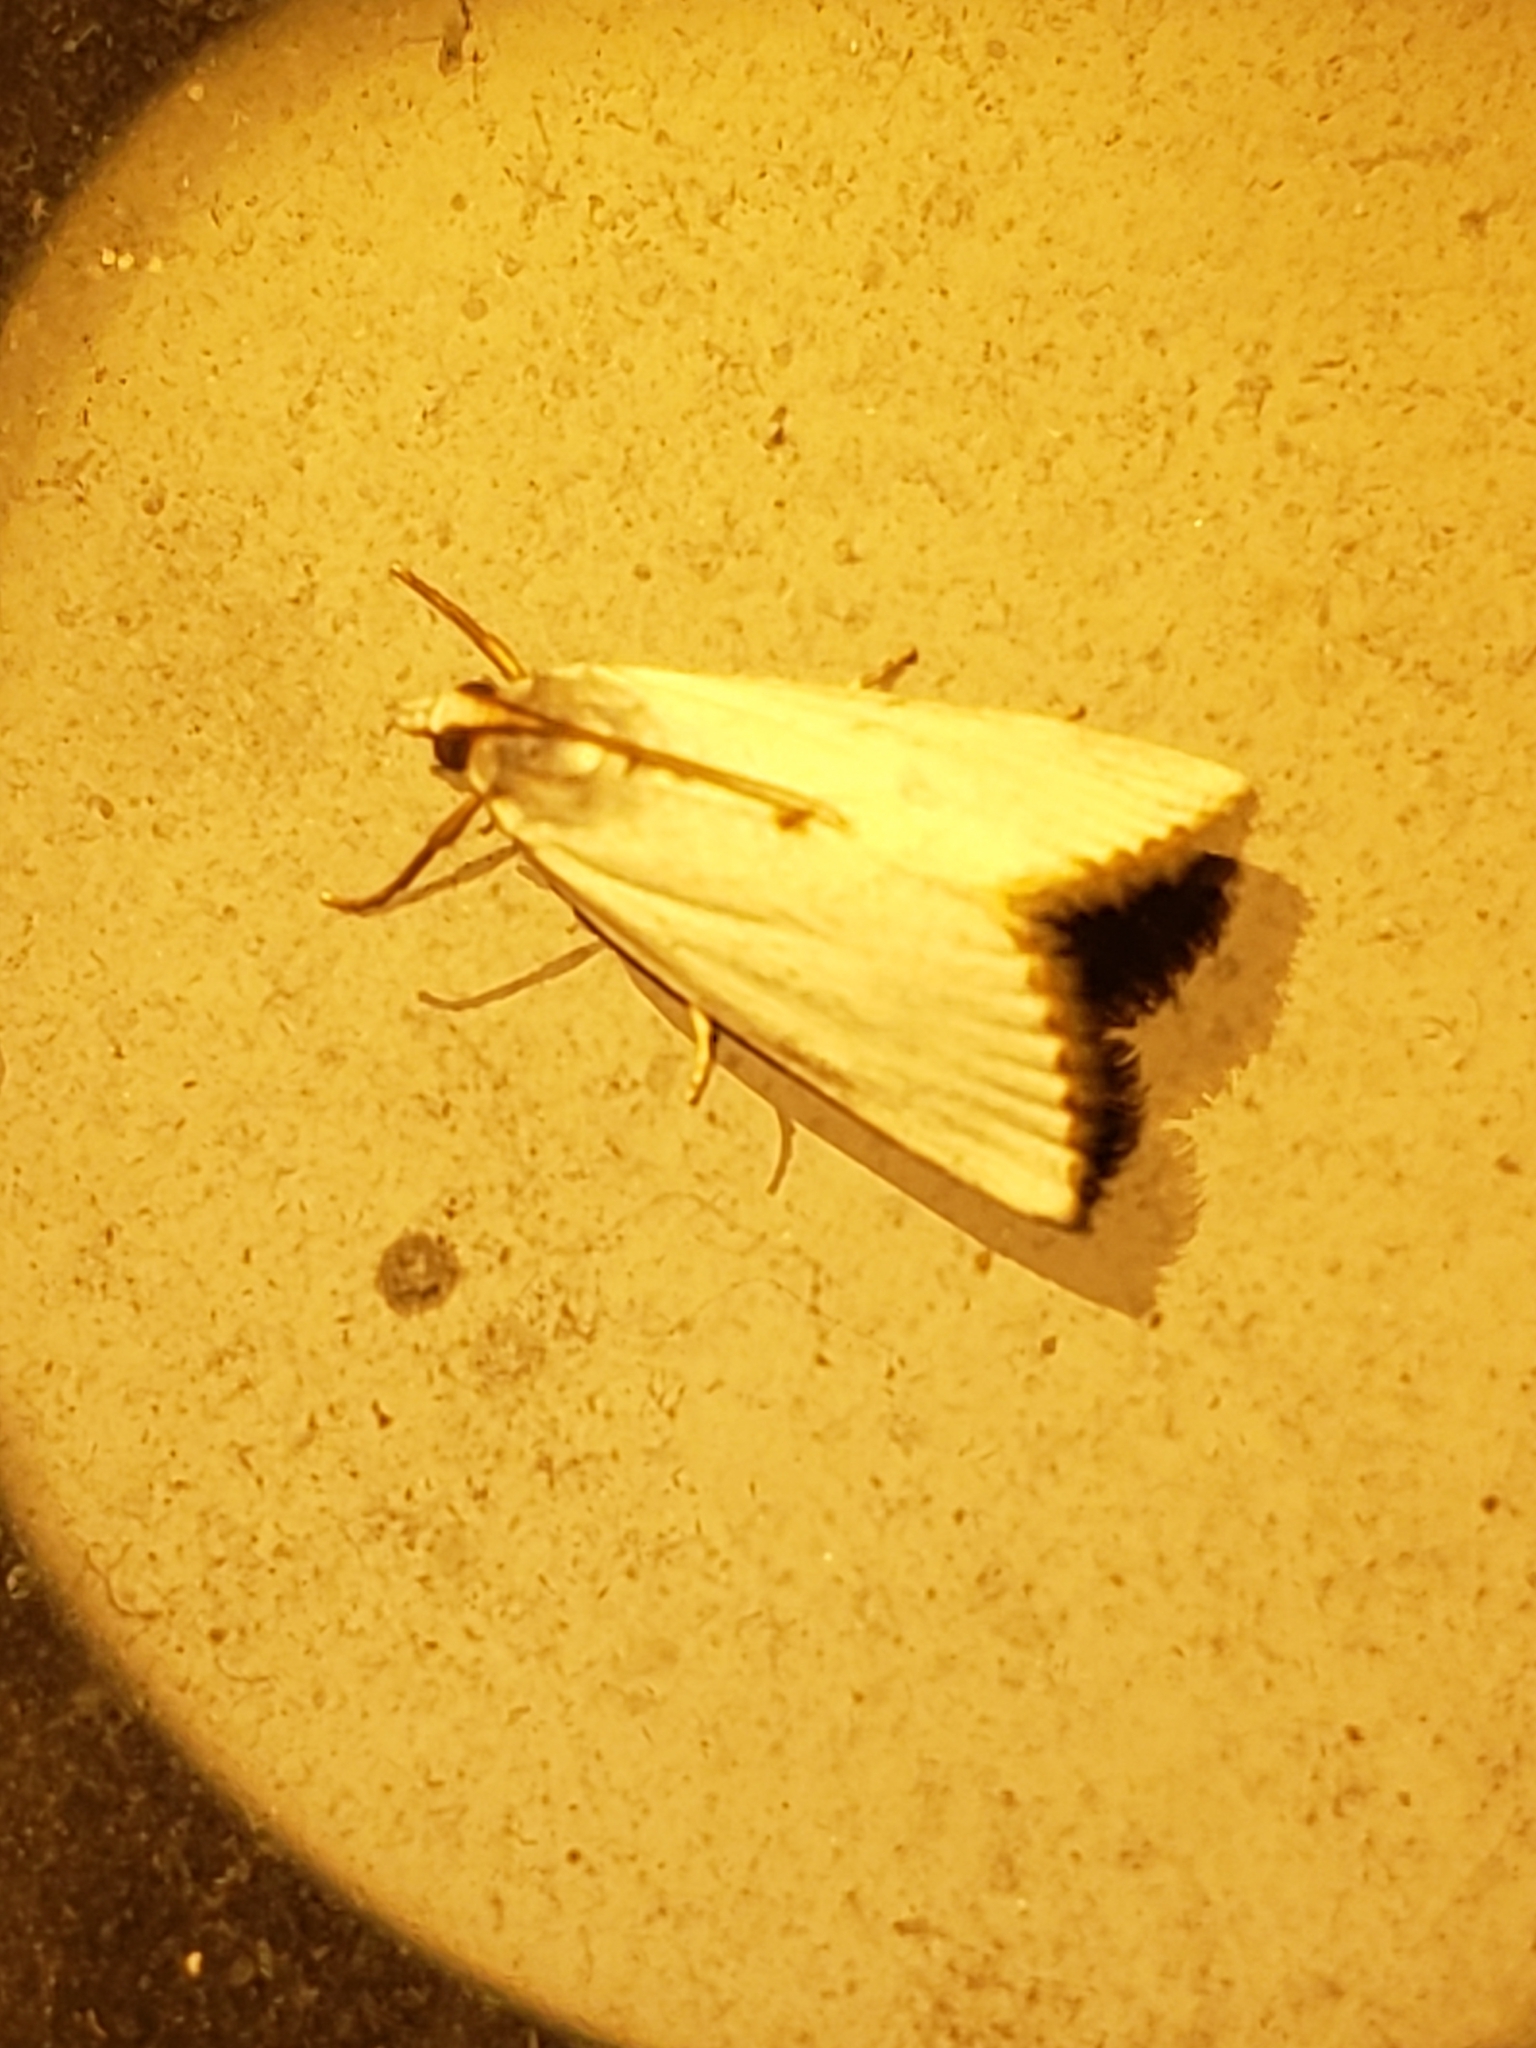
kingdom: Animalia
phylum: Arthropoda
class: Insecta
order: Lepidoptera
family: Crambidae
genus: Argyria
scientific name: Argyria nivalis
